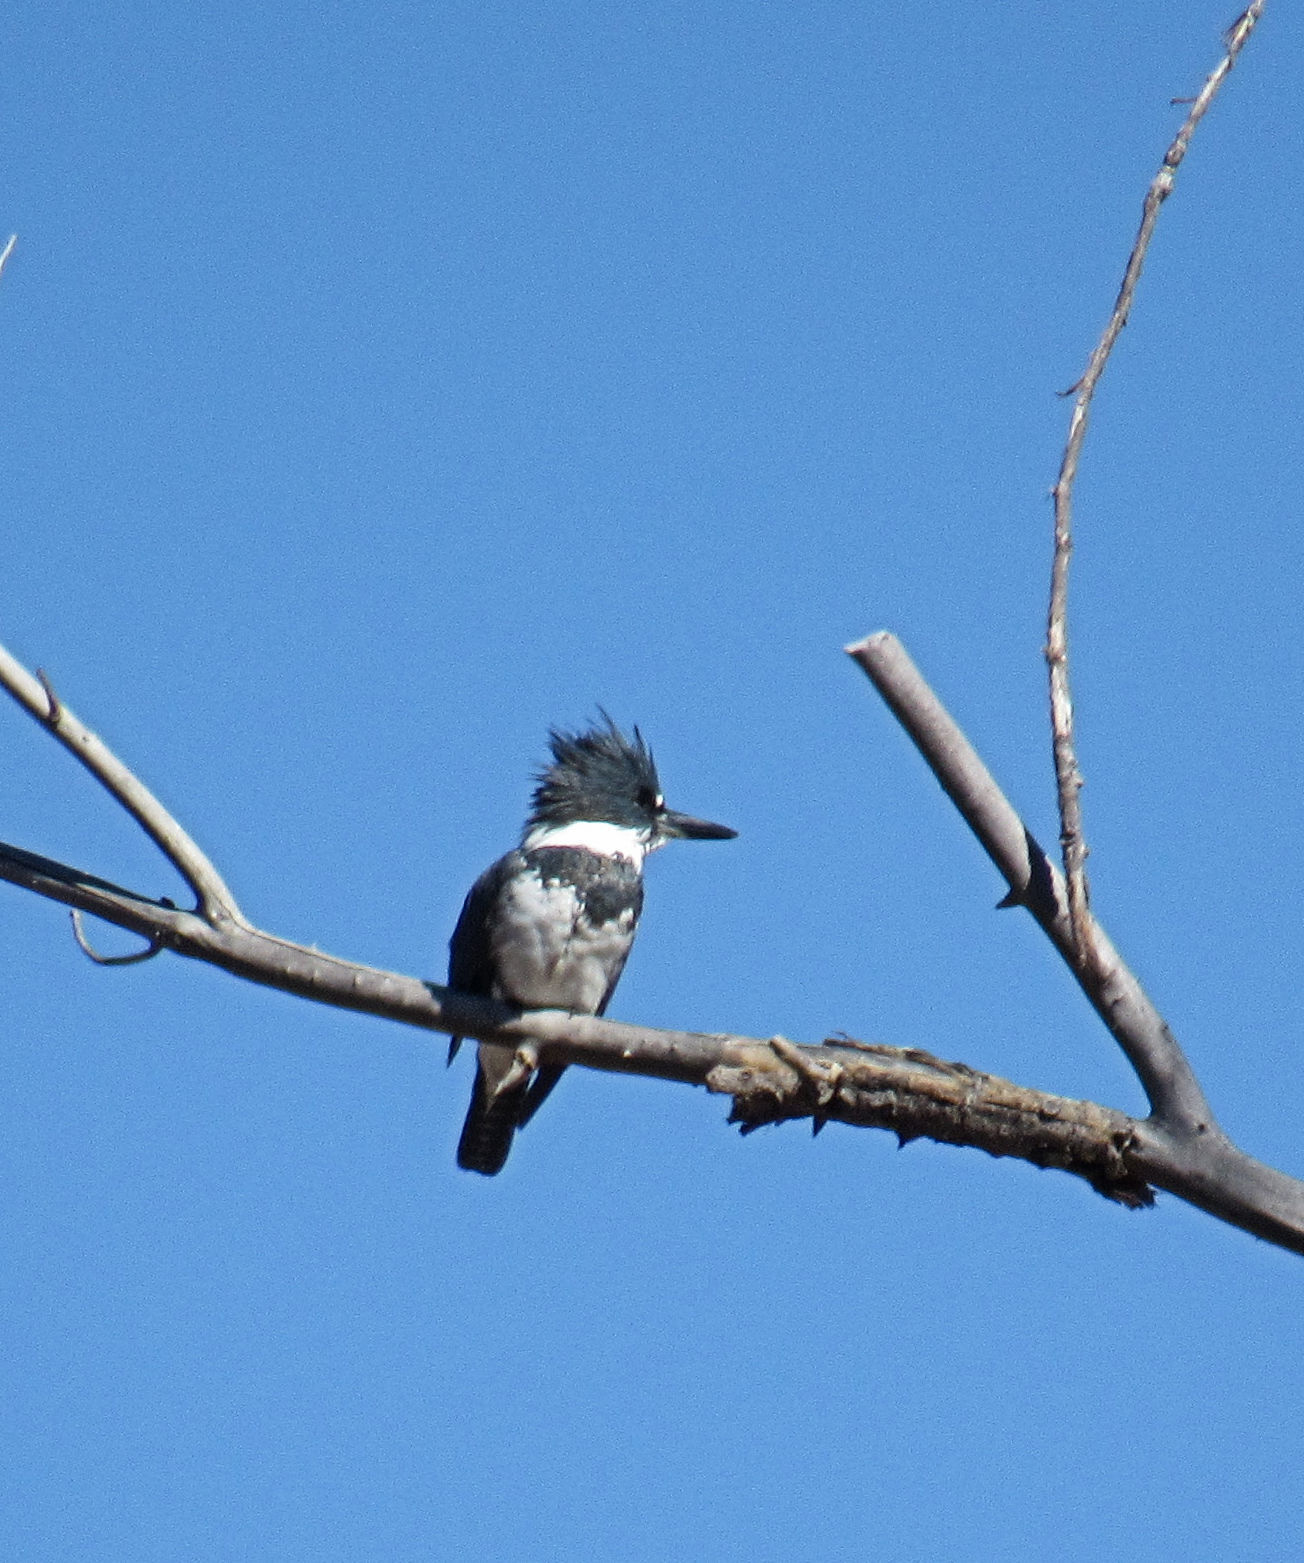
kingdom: Animalia
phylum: Chordata
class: Aves
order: Coraciiformes
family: Alcedinidae
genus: Megaceryle
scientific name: Megaceryle alcyon
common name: Belted kingfisher
